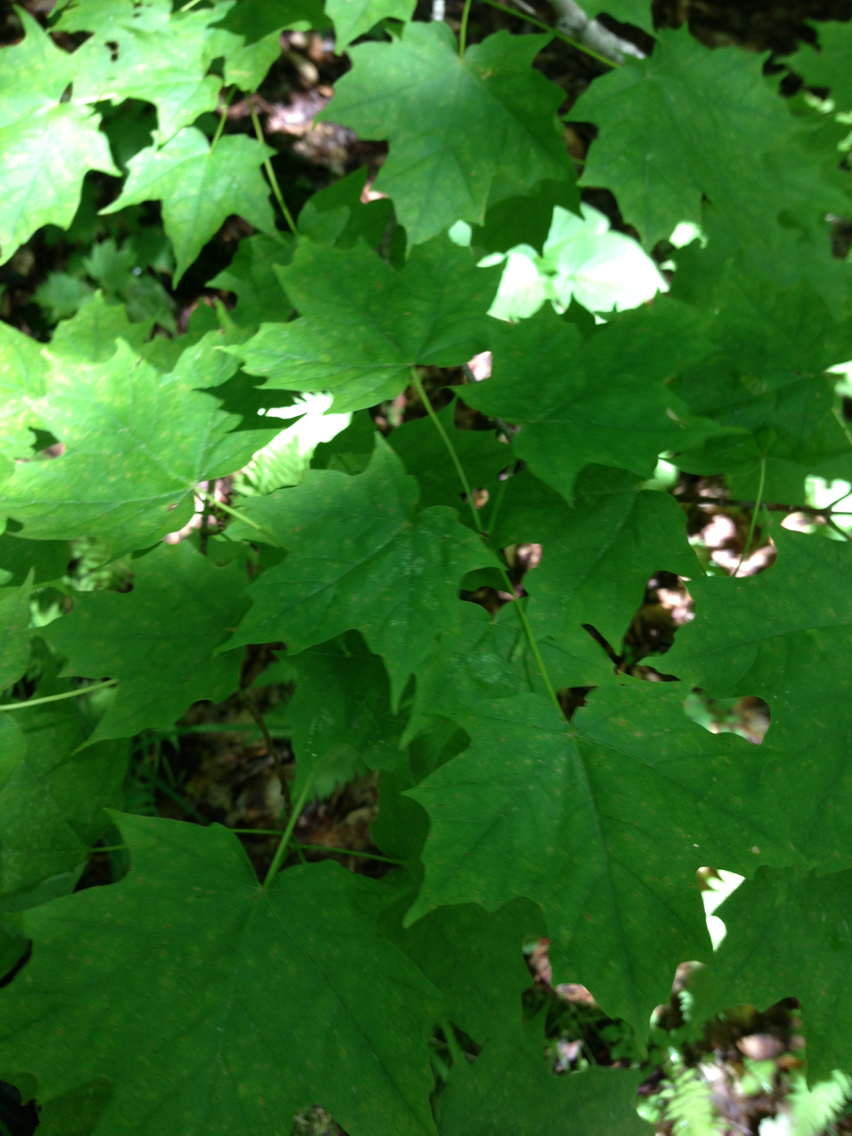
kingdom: Plantae
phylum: Tracheophyta
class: Magnoliopsida
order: Sapindales
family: Sapindaceae
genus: Acer
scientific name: Acer saccharum
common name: Sugar maple
